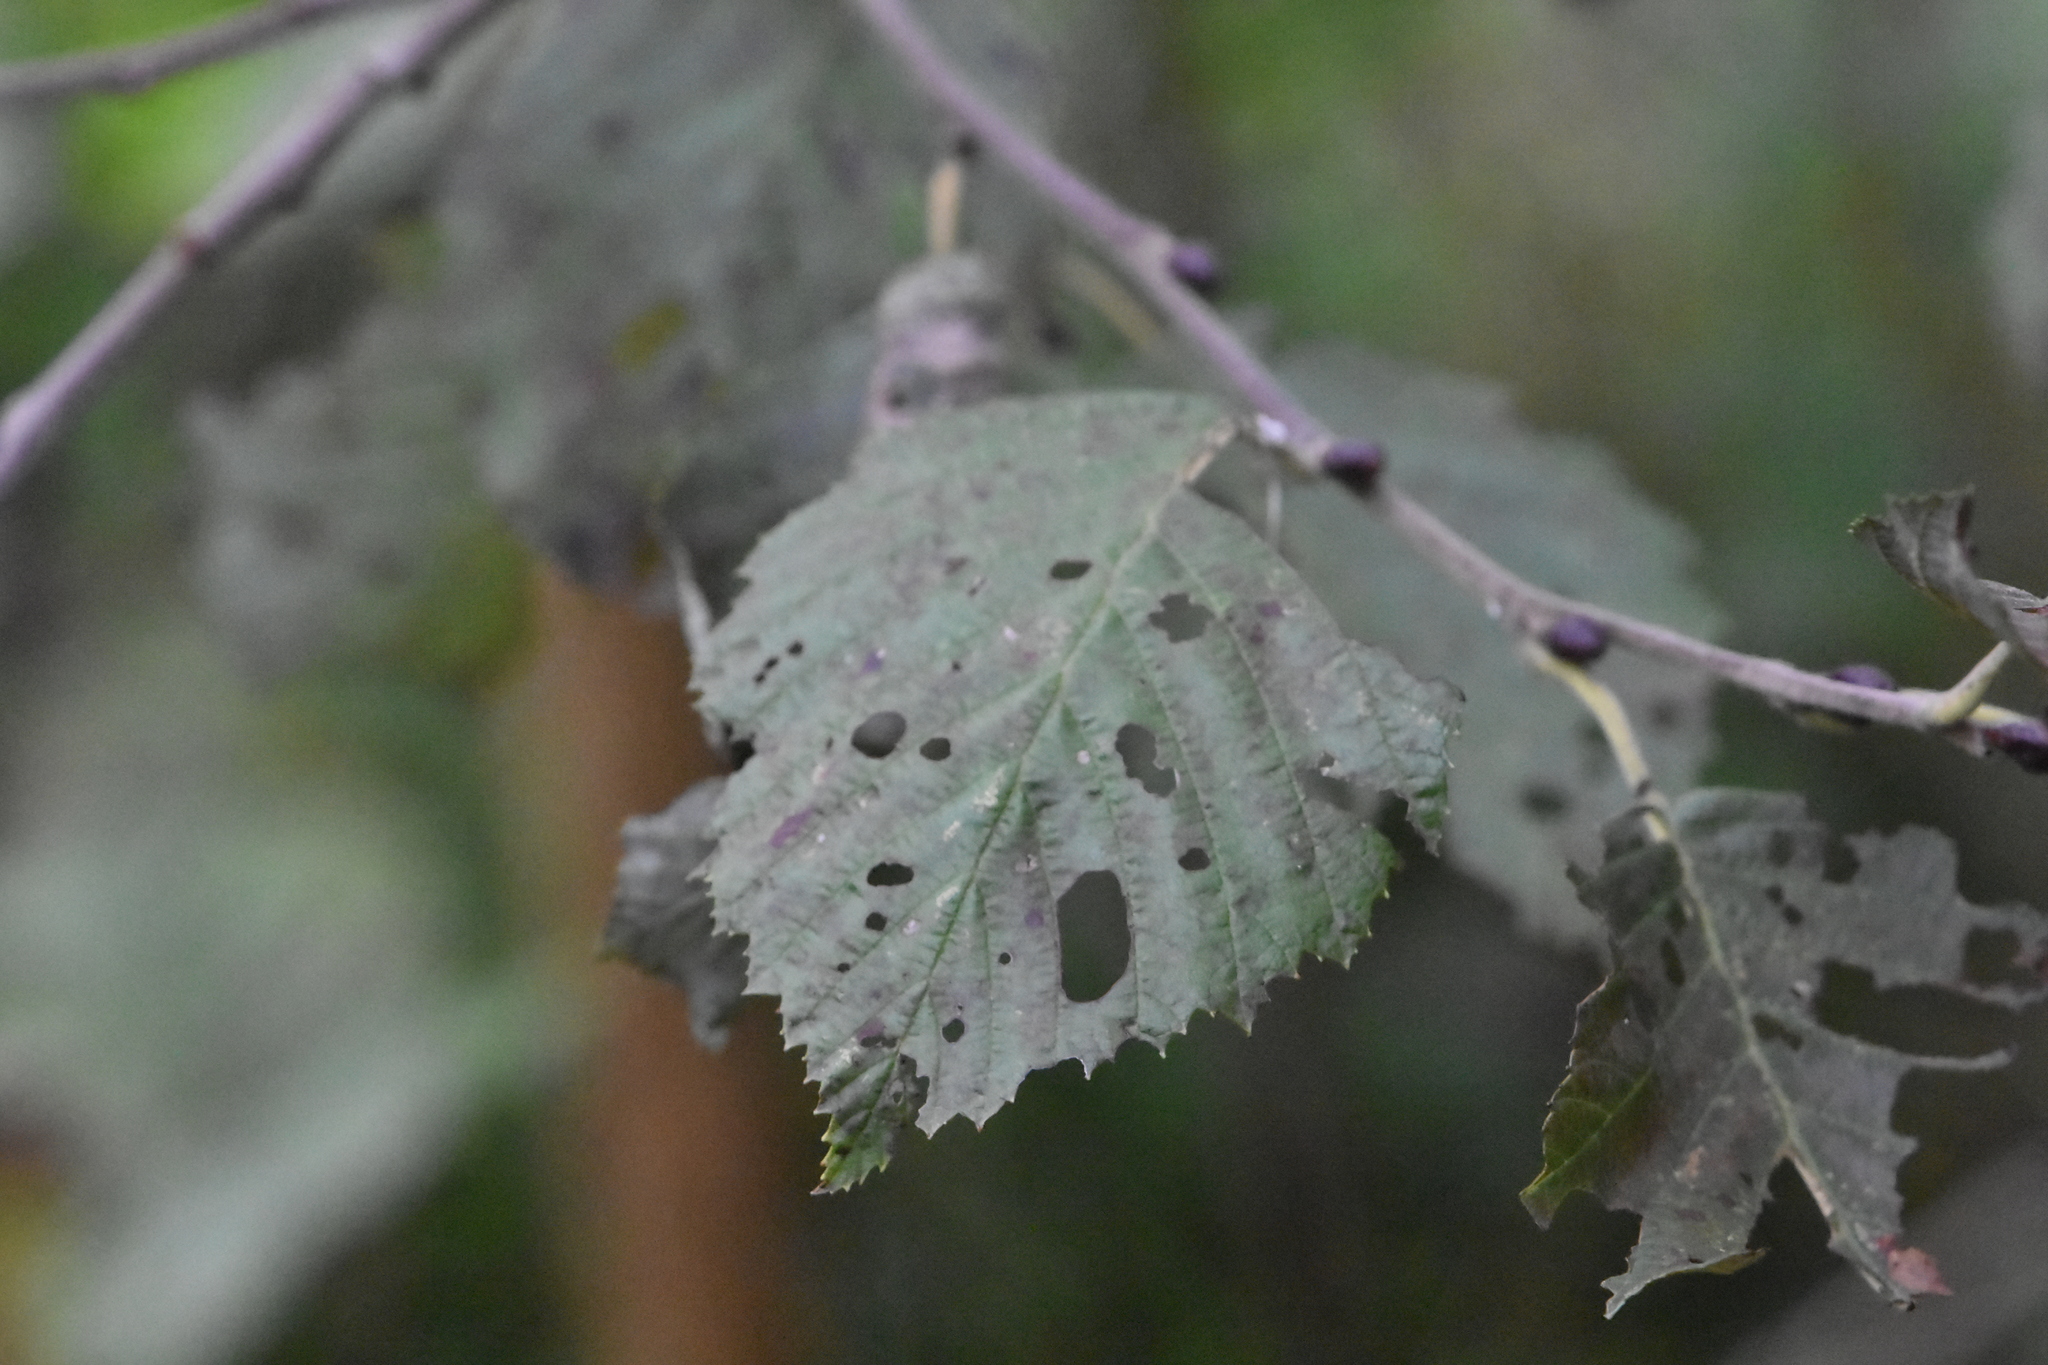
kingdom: Plantae
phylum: Tracheophyta
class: Magnoliopsida
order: Fagales
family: Betulaceae
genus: Alnus
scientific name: Alnus incana
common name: Grey alder
